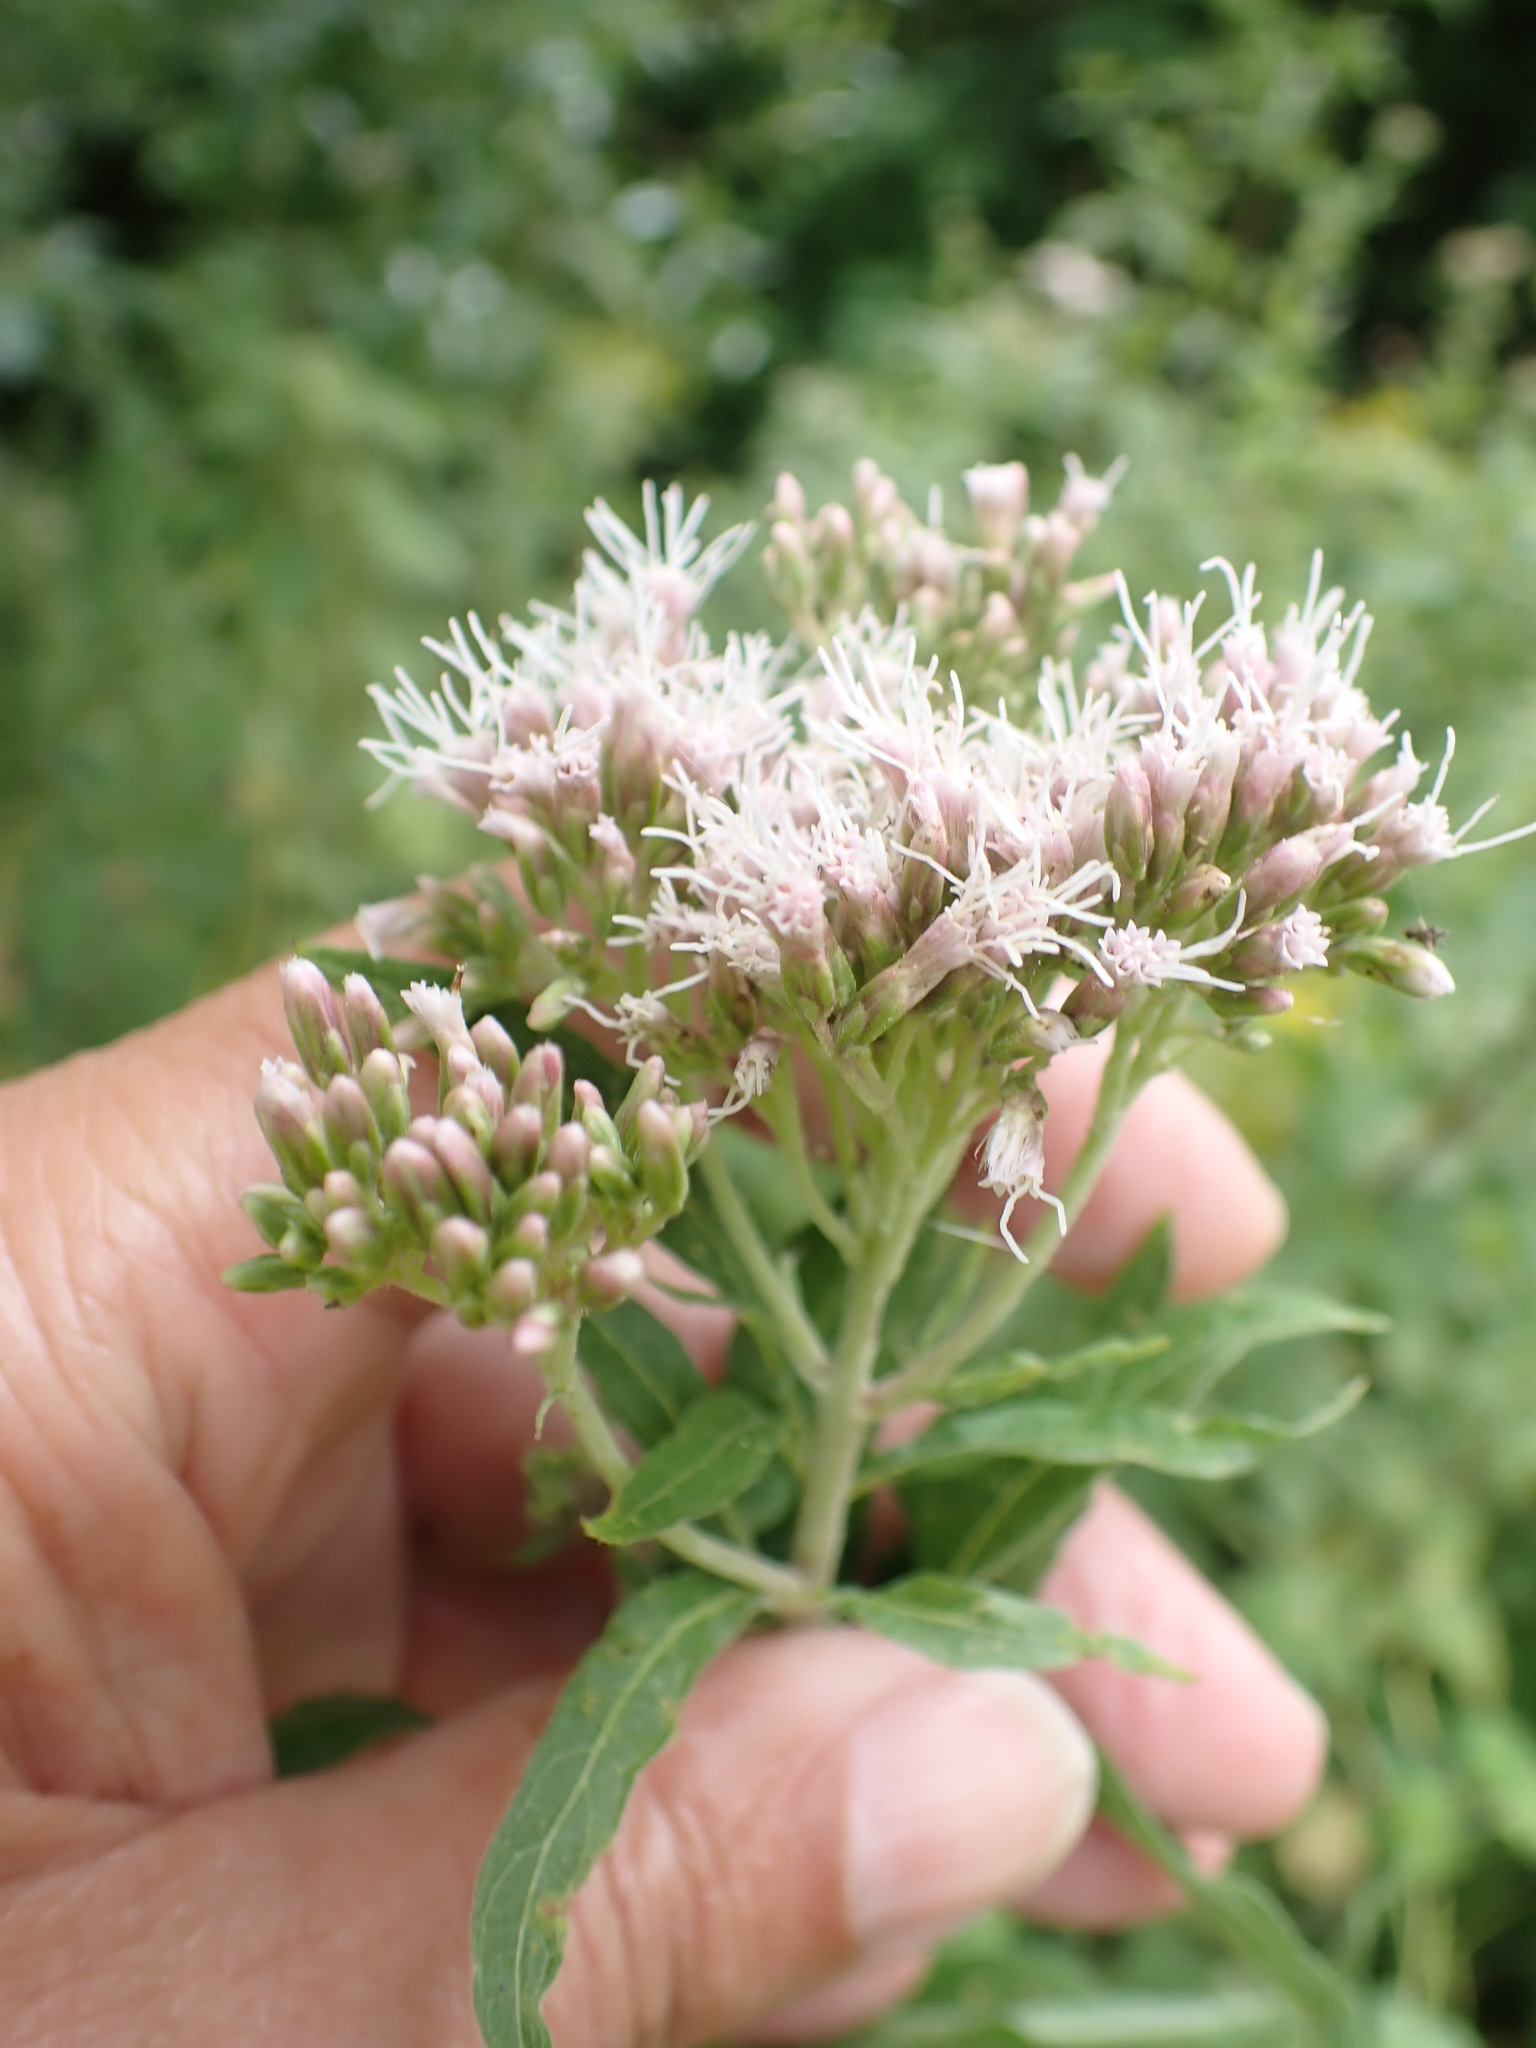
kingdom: Plantae
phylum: Tracheophyta
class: Magnoliopsida
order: Asterales
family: Asteraceae
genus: Eupatorium
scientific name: Eupatorium cannabinum
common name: Hemp-agrimony
